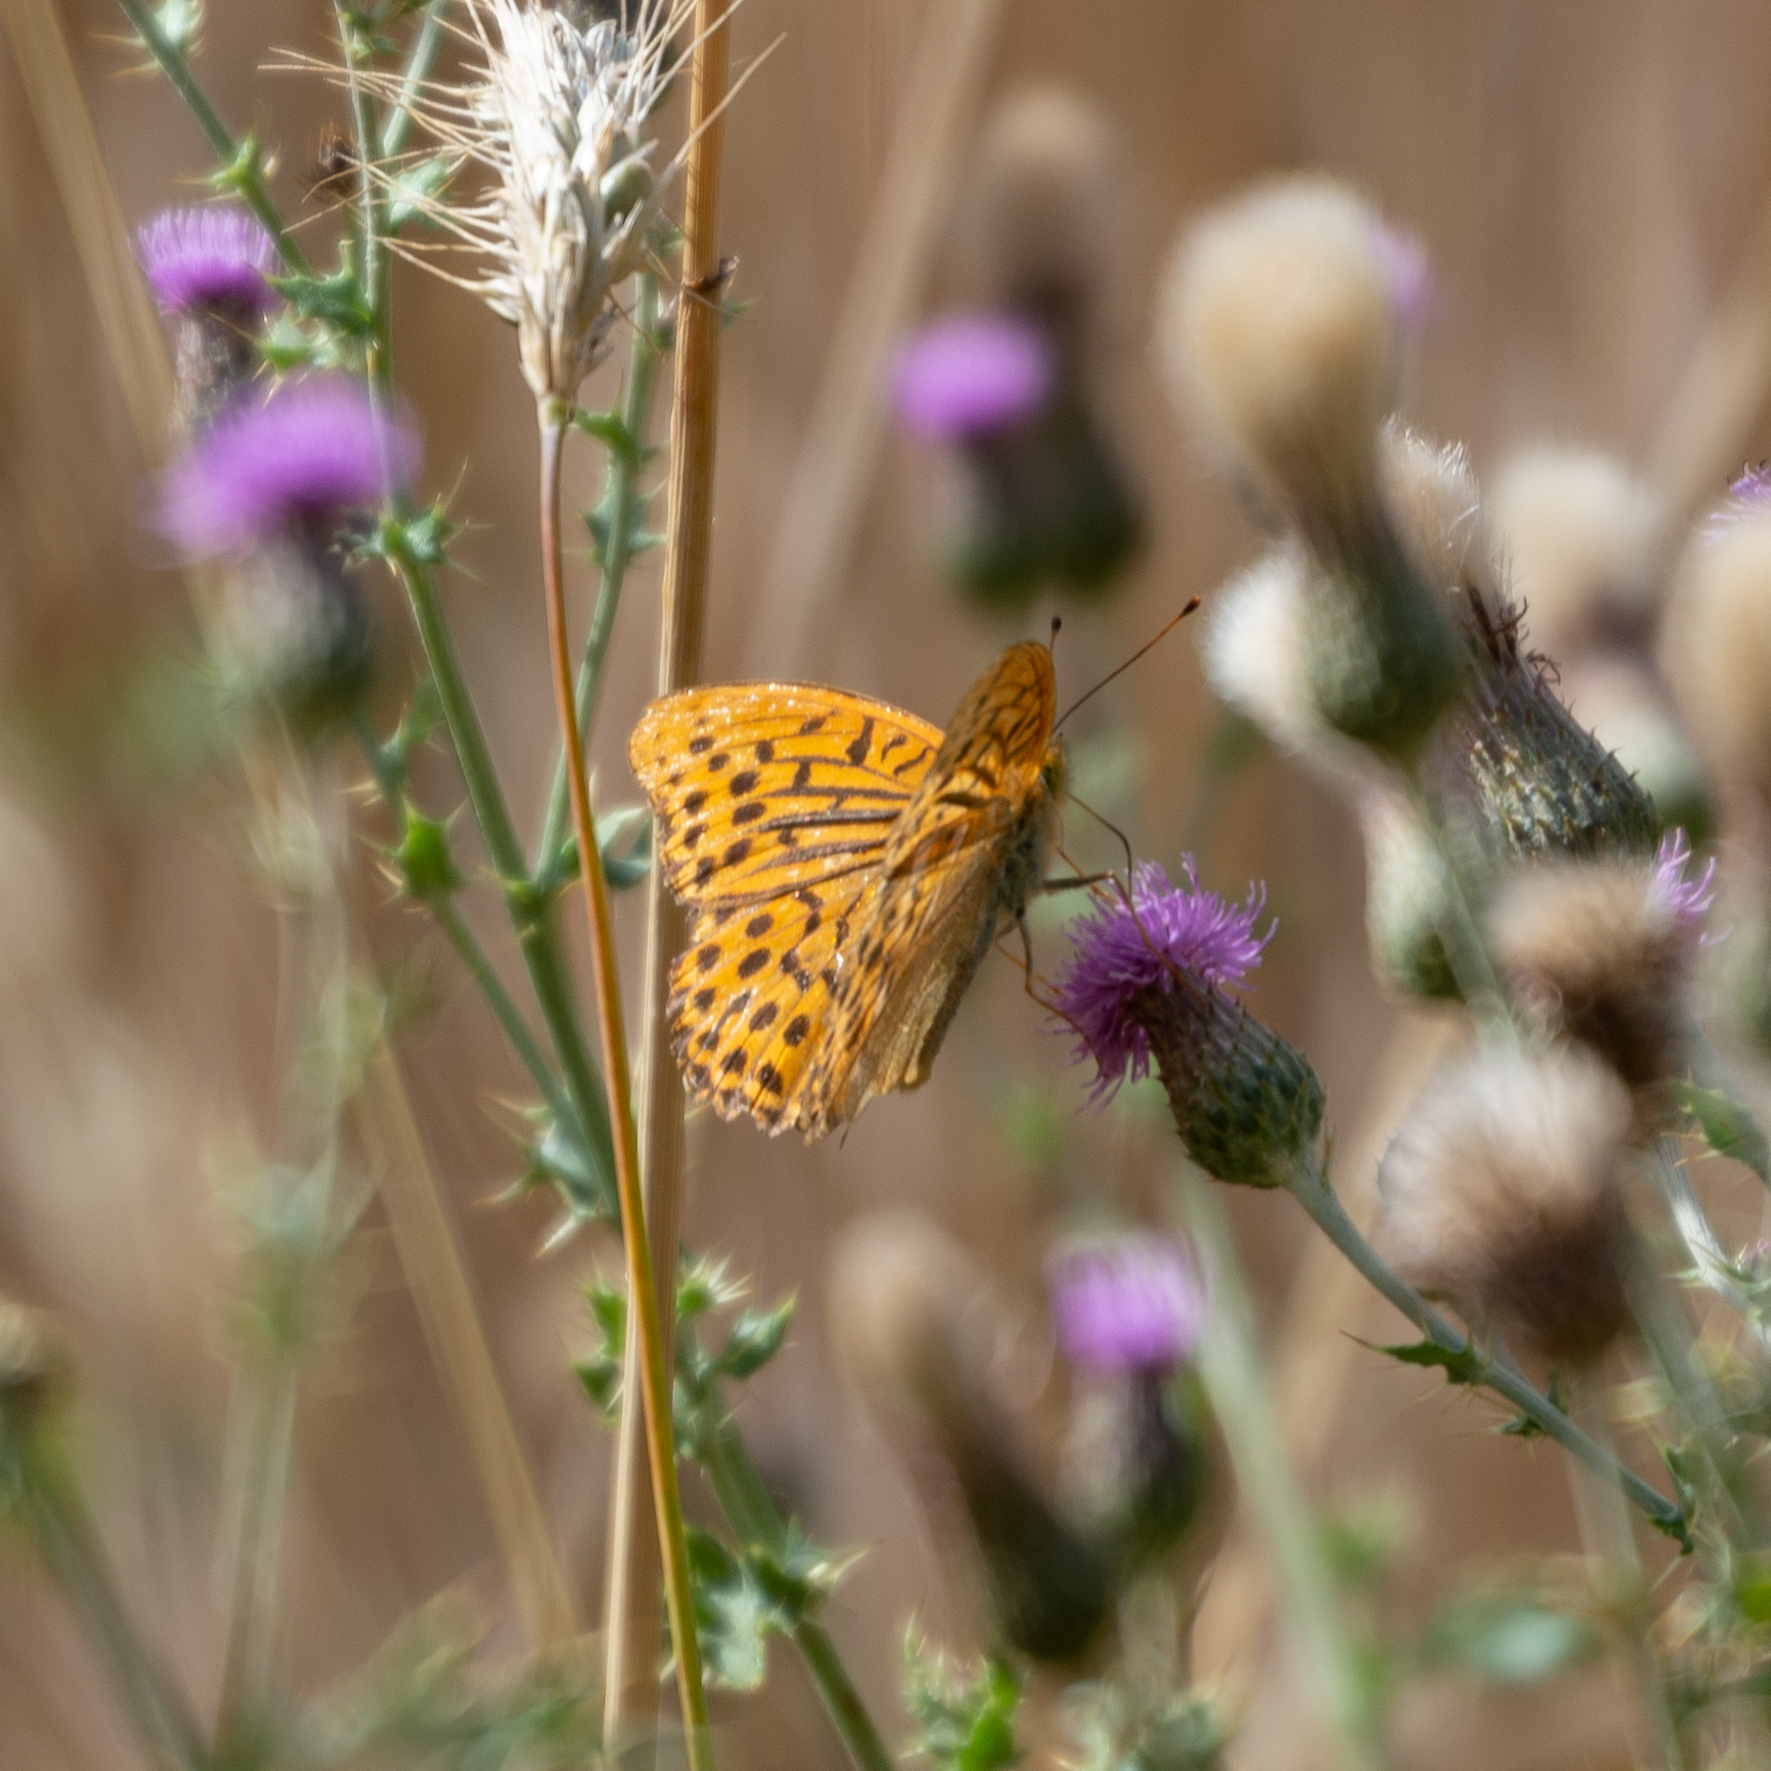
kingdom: Animalia
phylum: Arthropoda
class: Insecta
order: Lepidoptera
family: Nymphalidae
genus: Argynnis
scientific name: Argynnis paphia
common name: Silver-washed fritillary
